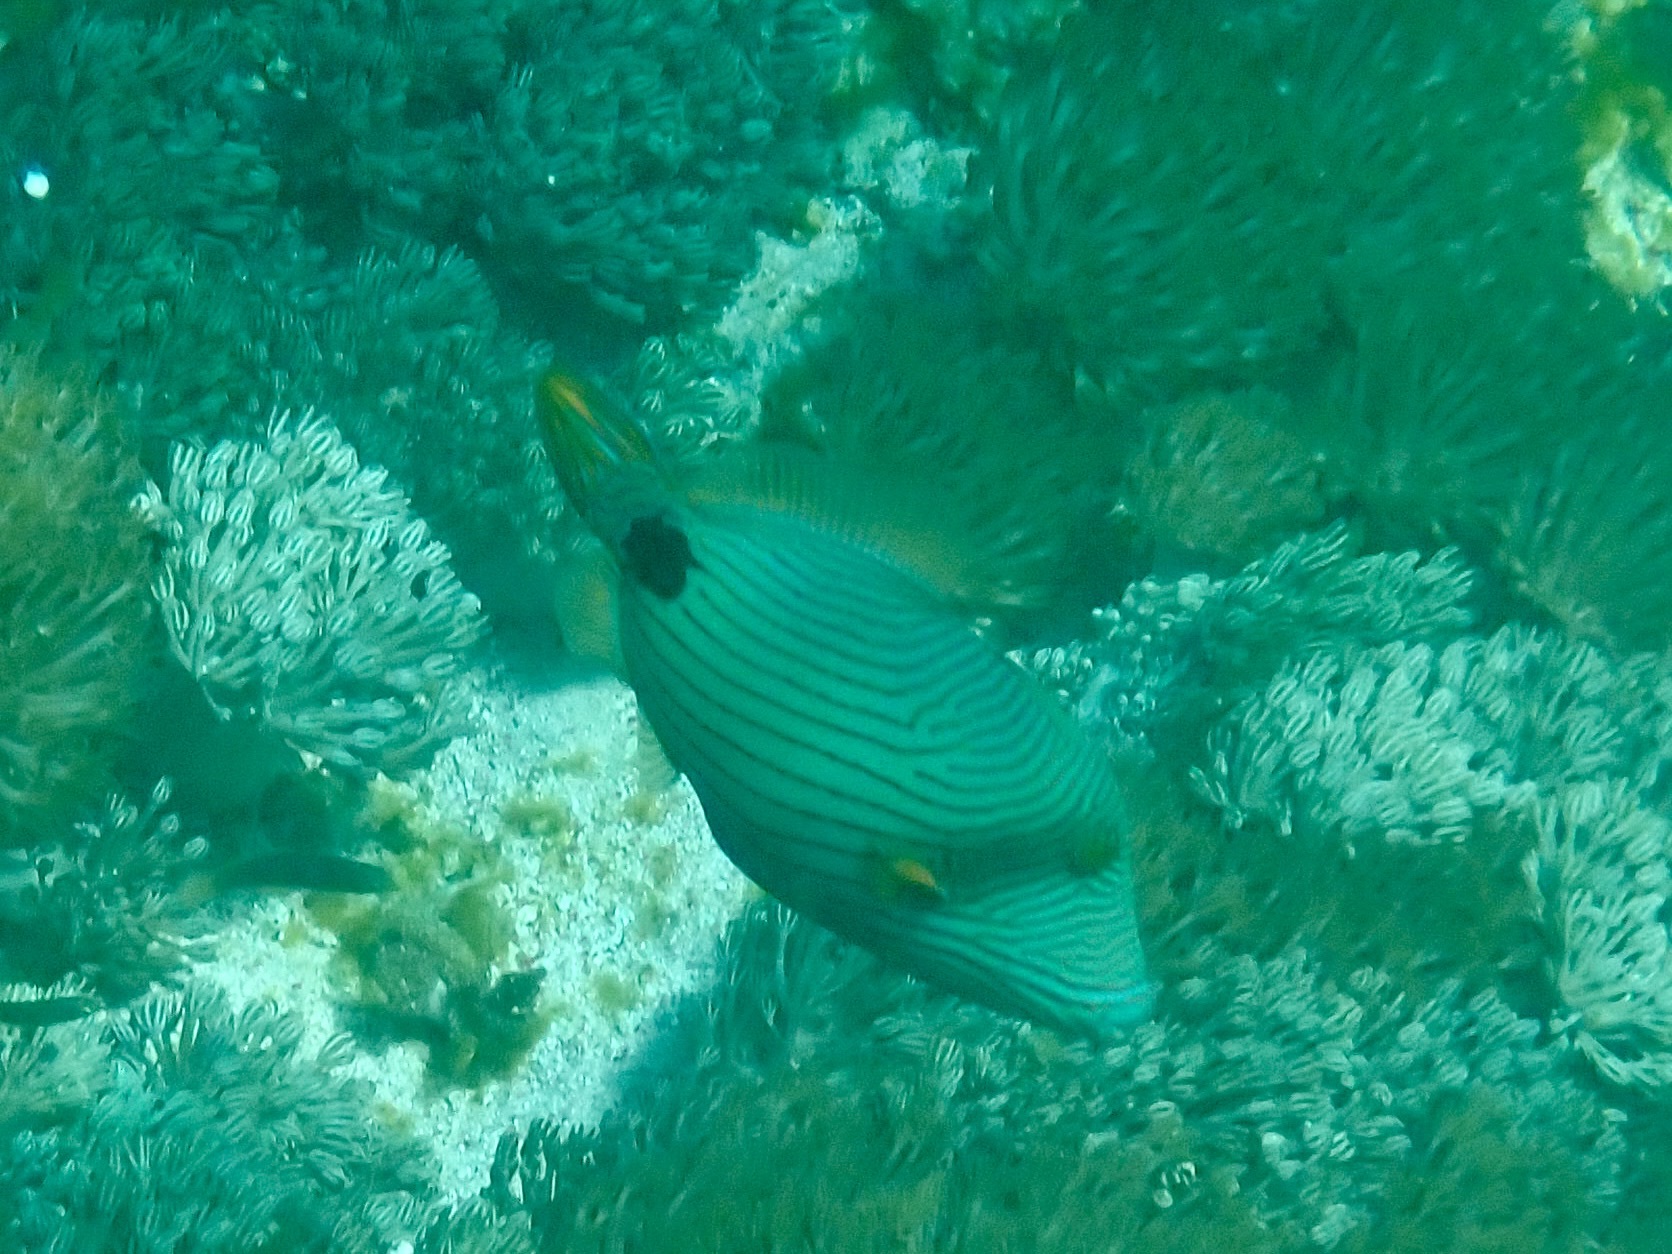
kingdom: Animalia
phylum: Chordata
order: Tetraodontiformes
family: Balistidae
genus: Balistapus
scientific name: Balistapus undulatus
